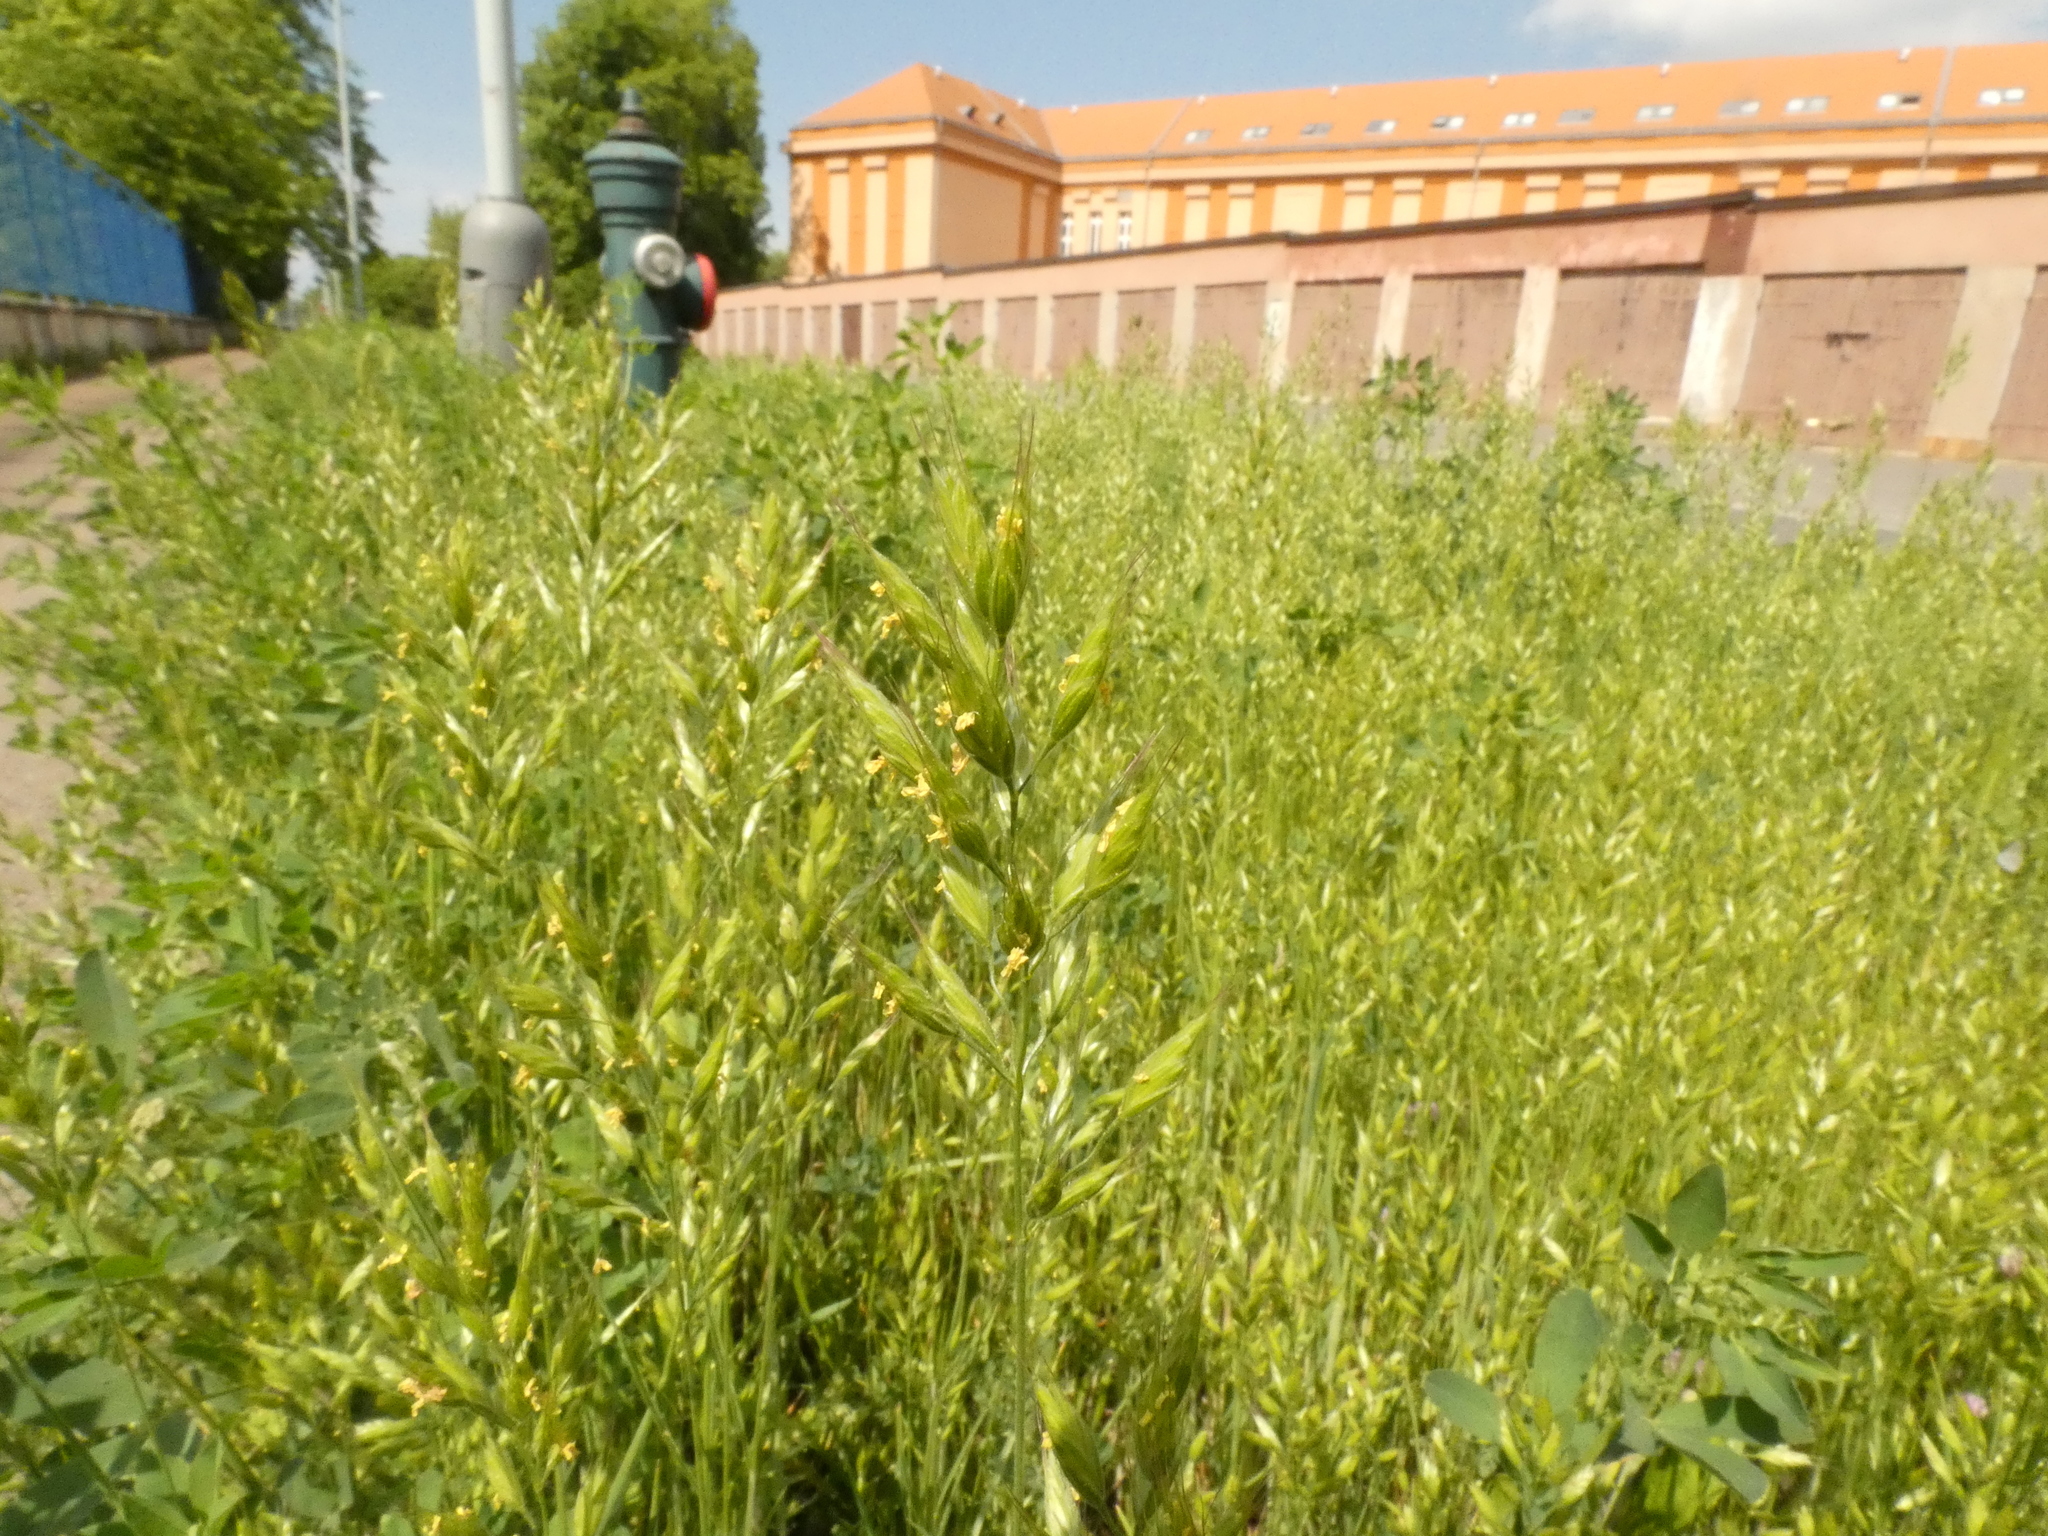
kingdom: Plantae
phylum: Tracheophyta
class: Liliopsida
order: Poales
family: Poaceae
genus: Bromus
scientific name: Bromus hordeaceus
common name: Soft brome
